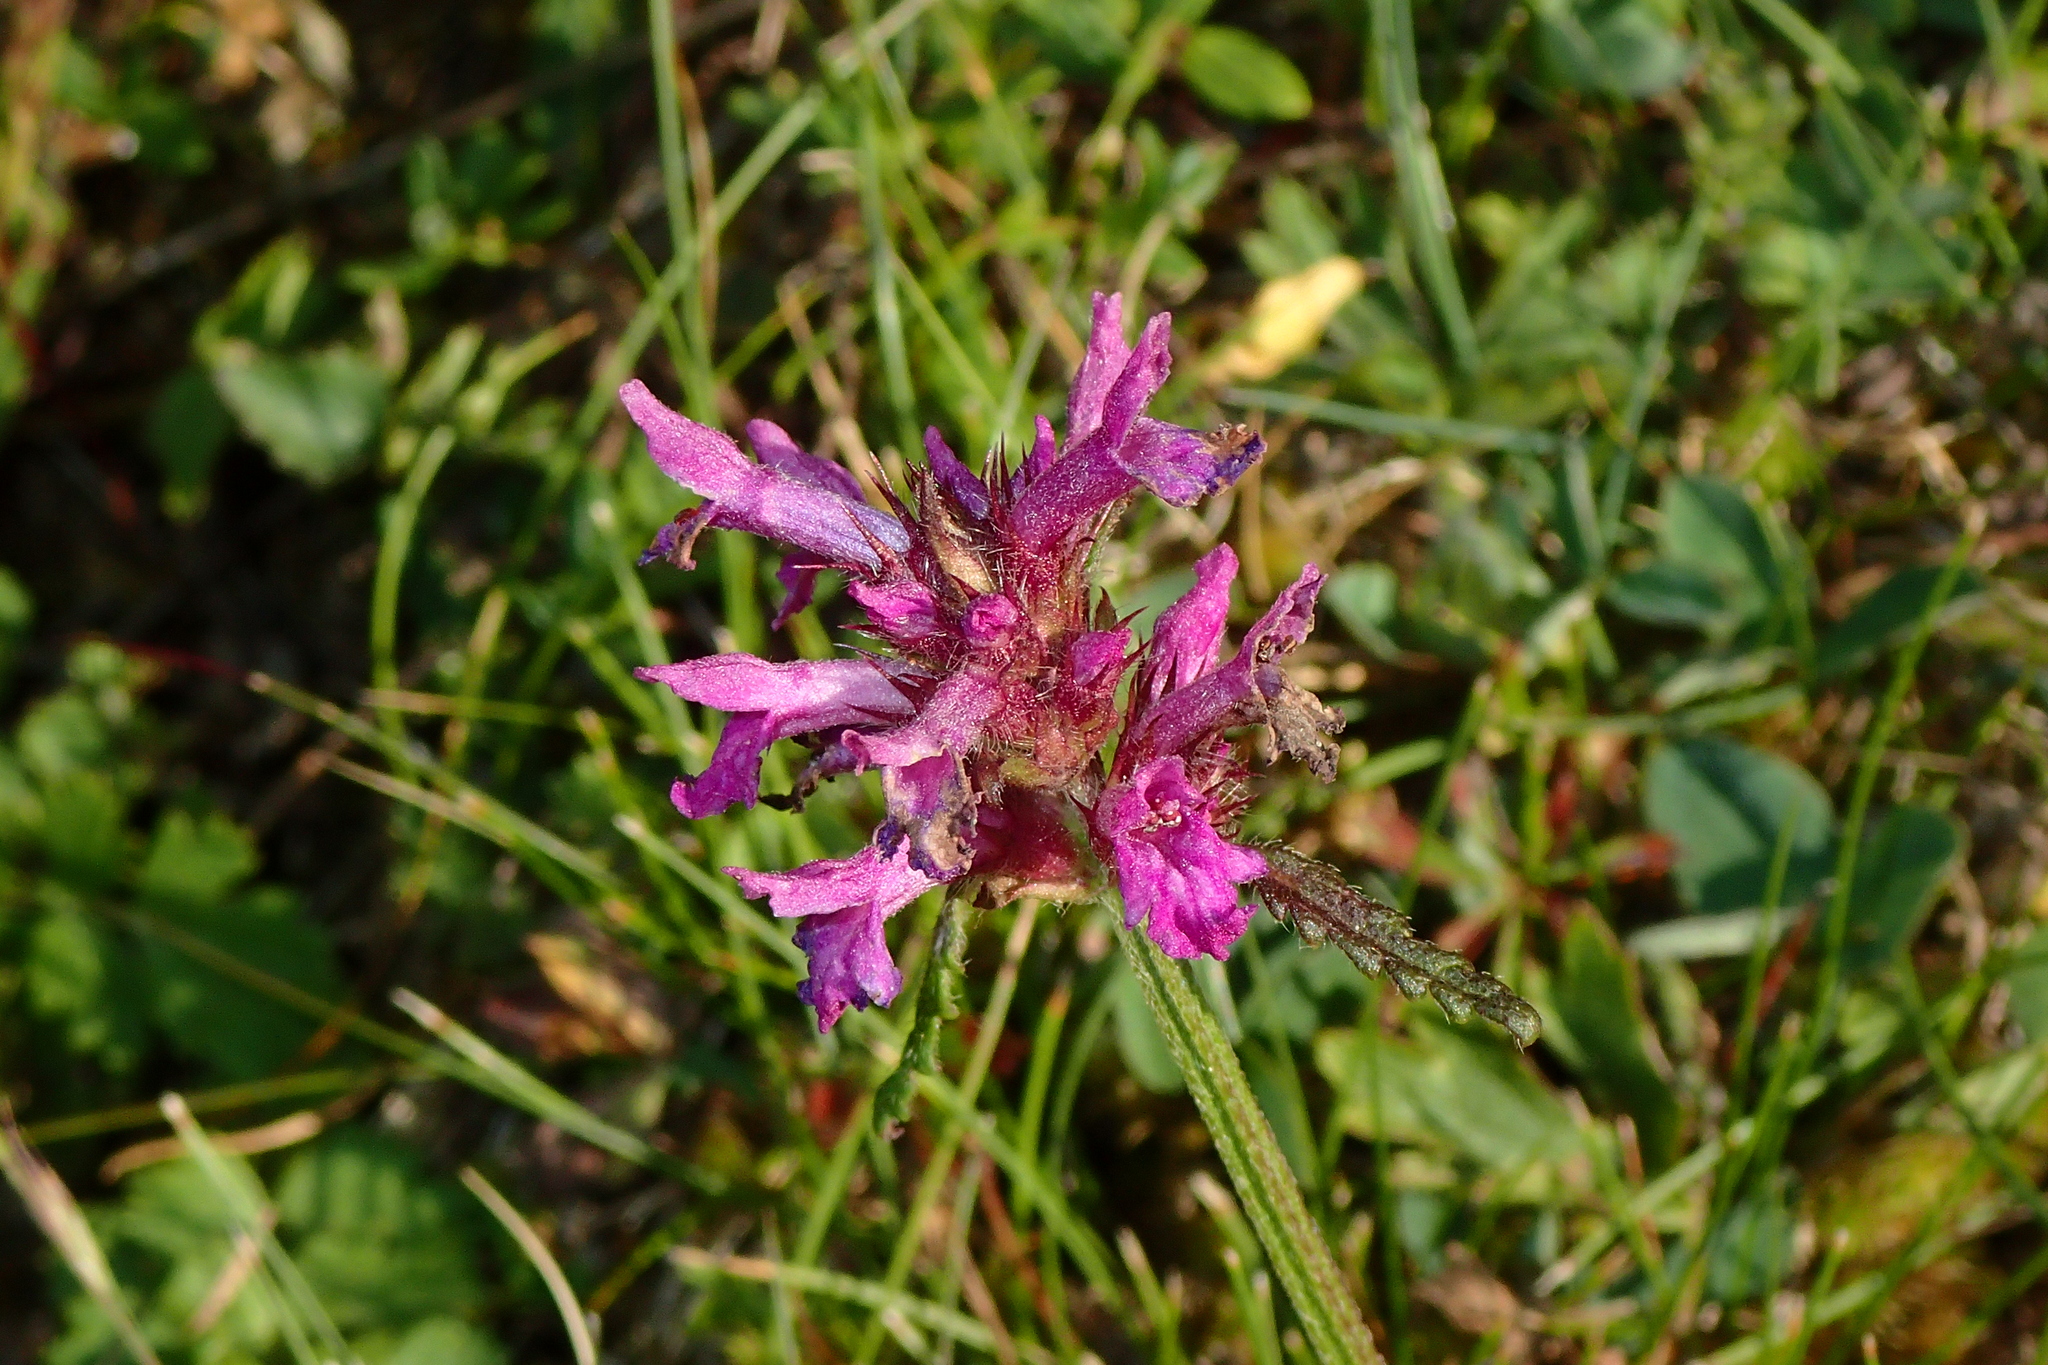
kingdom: Plantae
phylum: Tracheophyta
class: Magnoliopsida
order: Lamiales
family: Lamiaceae
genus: Betonica
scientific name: Betonica officinalis
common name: Bishop's-wort
